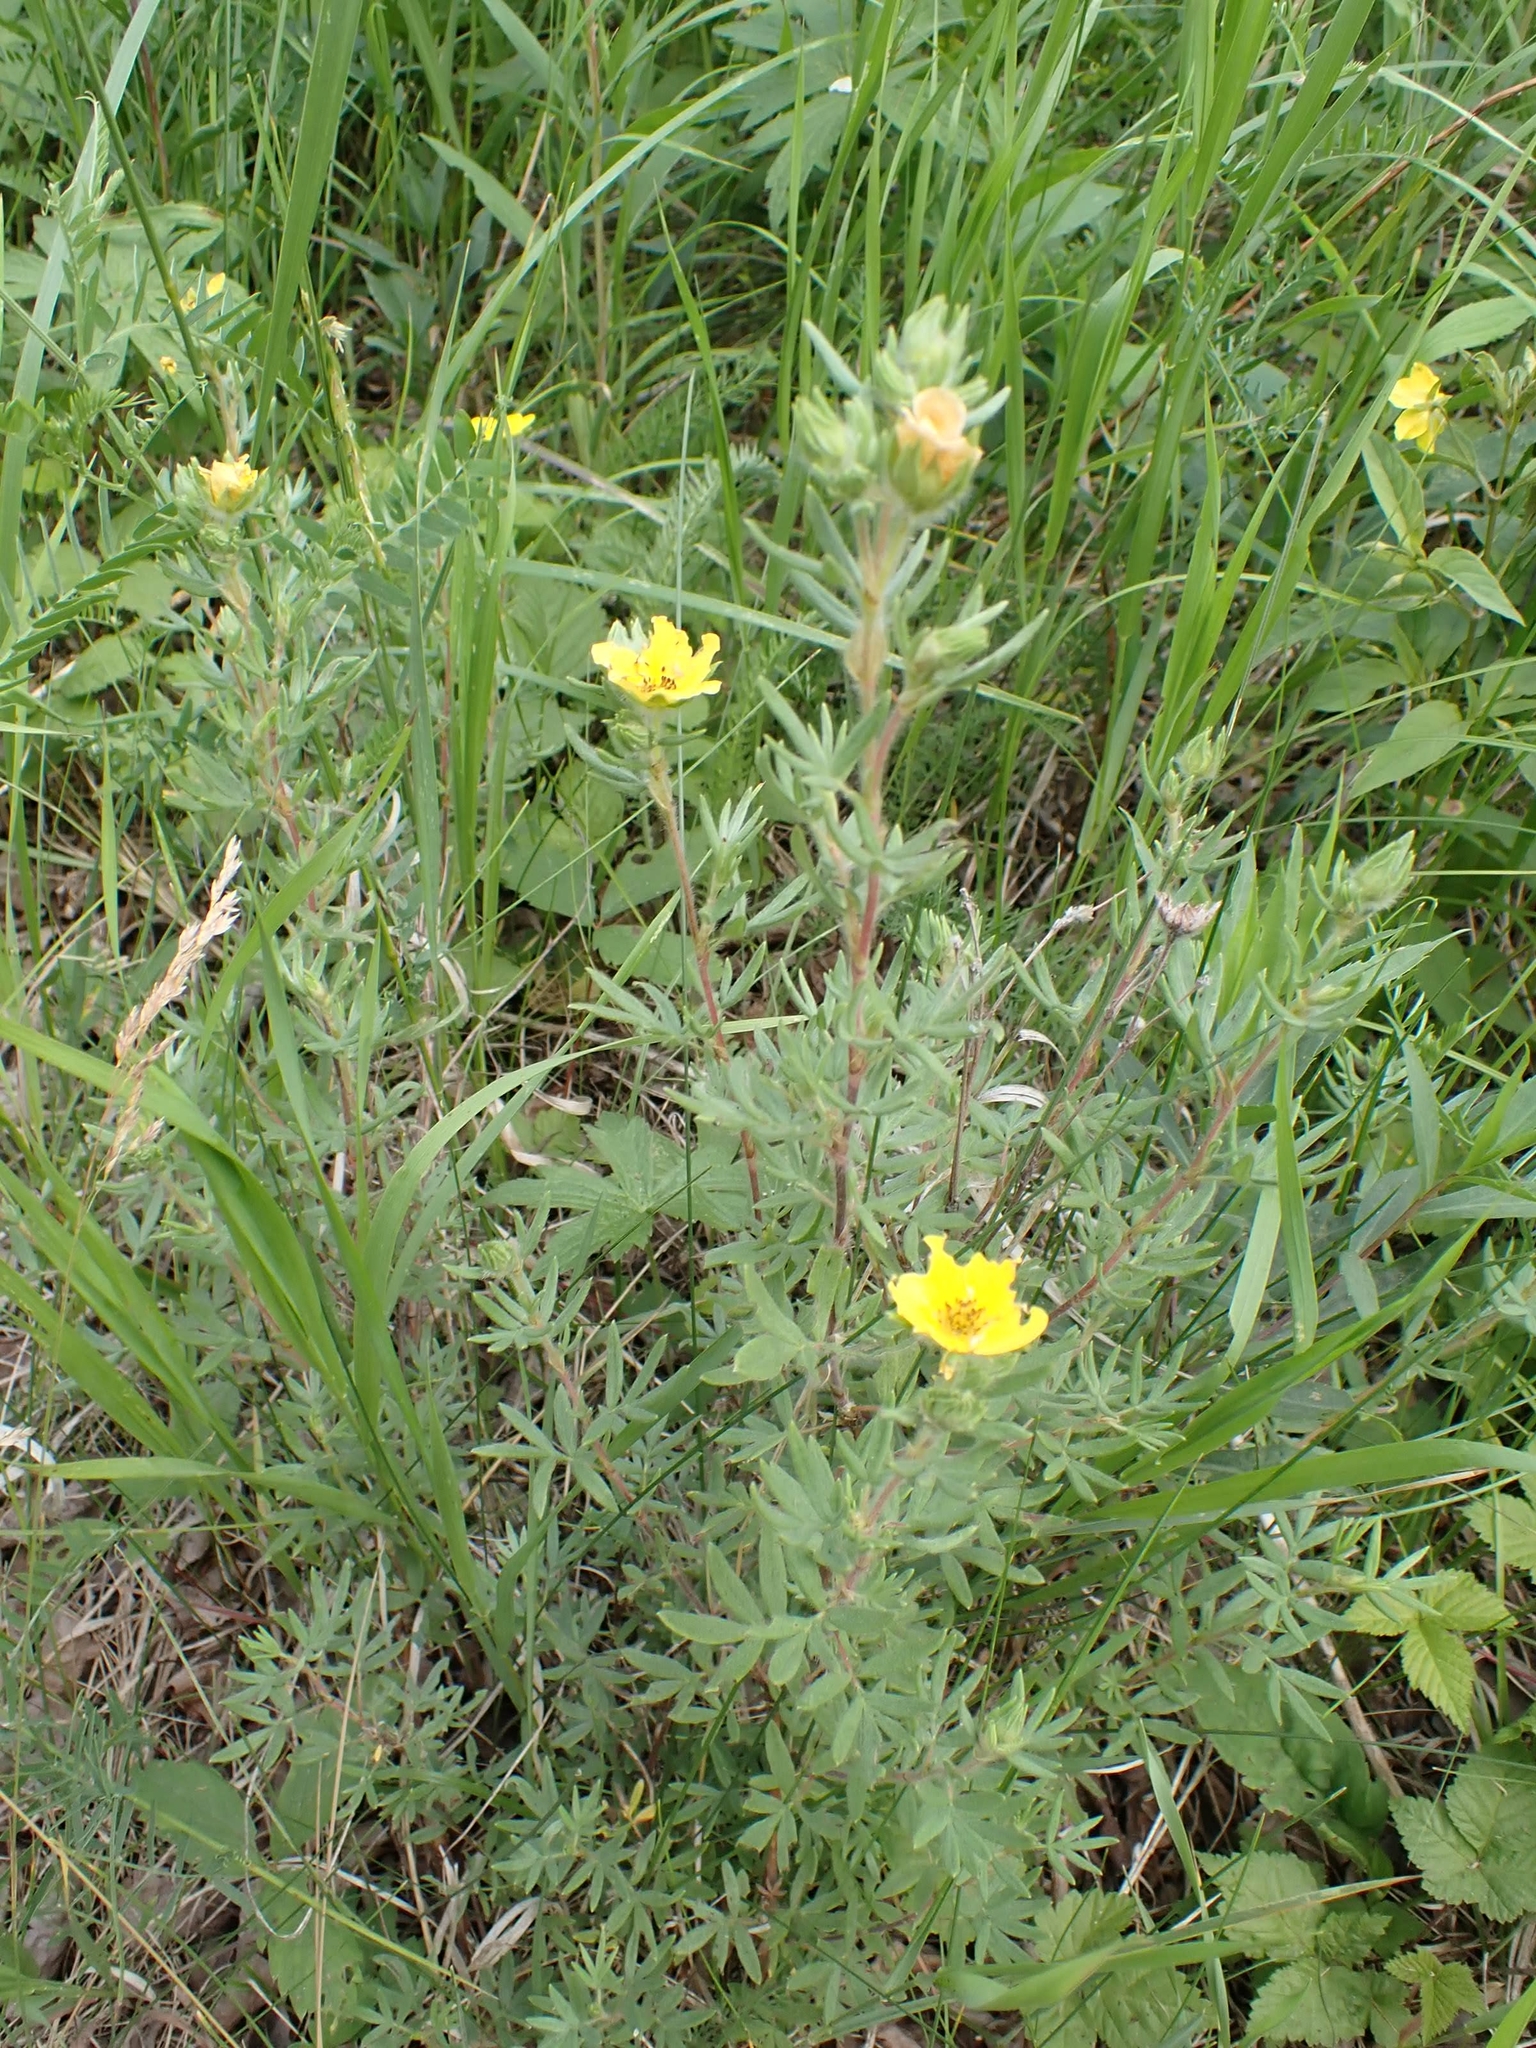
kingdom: Plantae
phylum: Tracheophyta
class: Magnoliopsida
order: Rosales
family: Rosaceae
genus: Dasiphora
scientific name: Dasiphora fruticosa
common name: Shrubby cinquefoil
